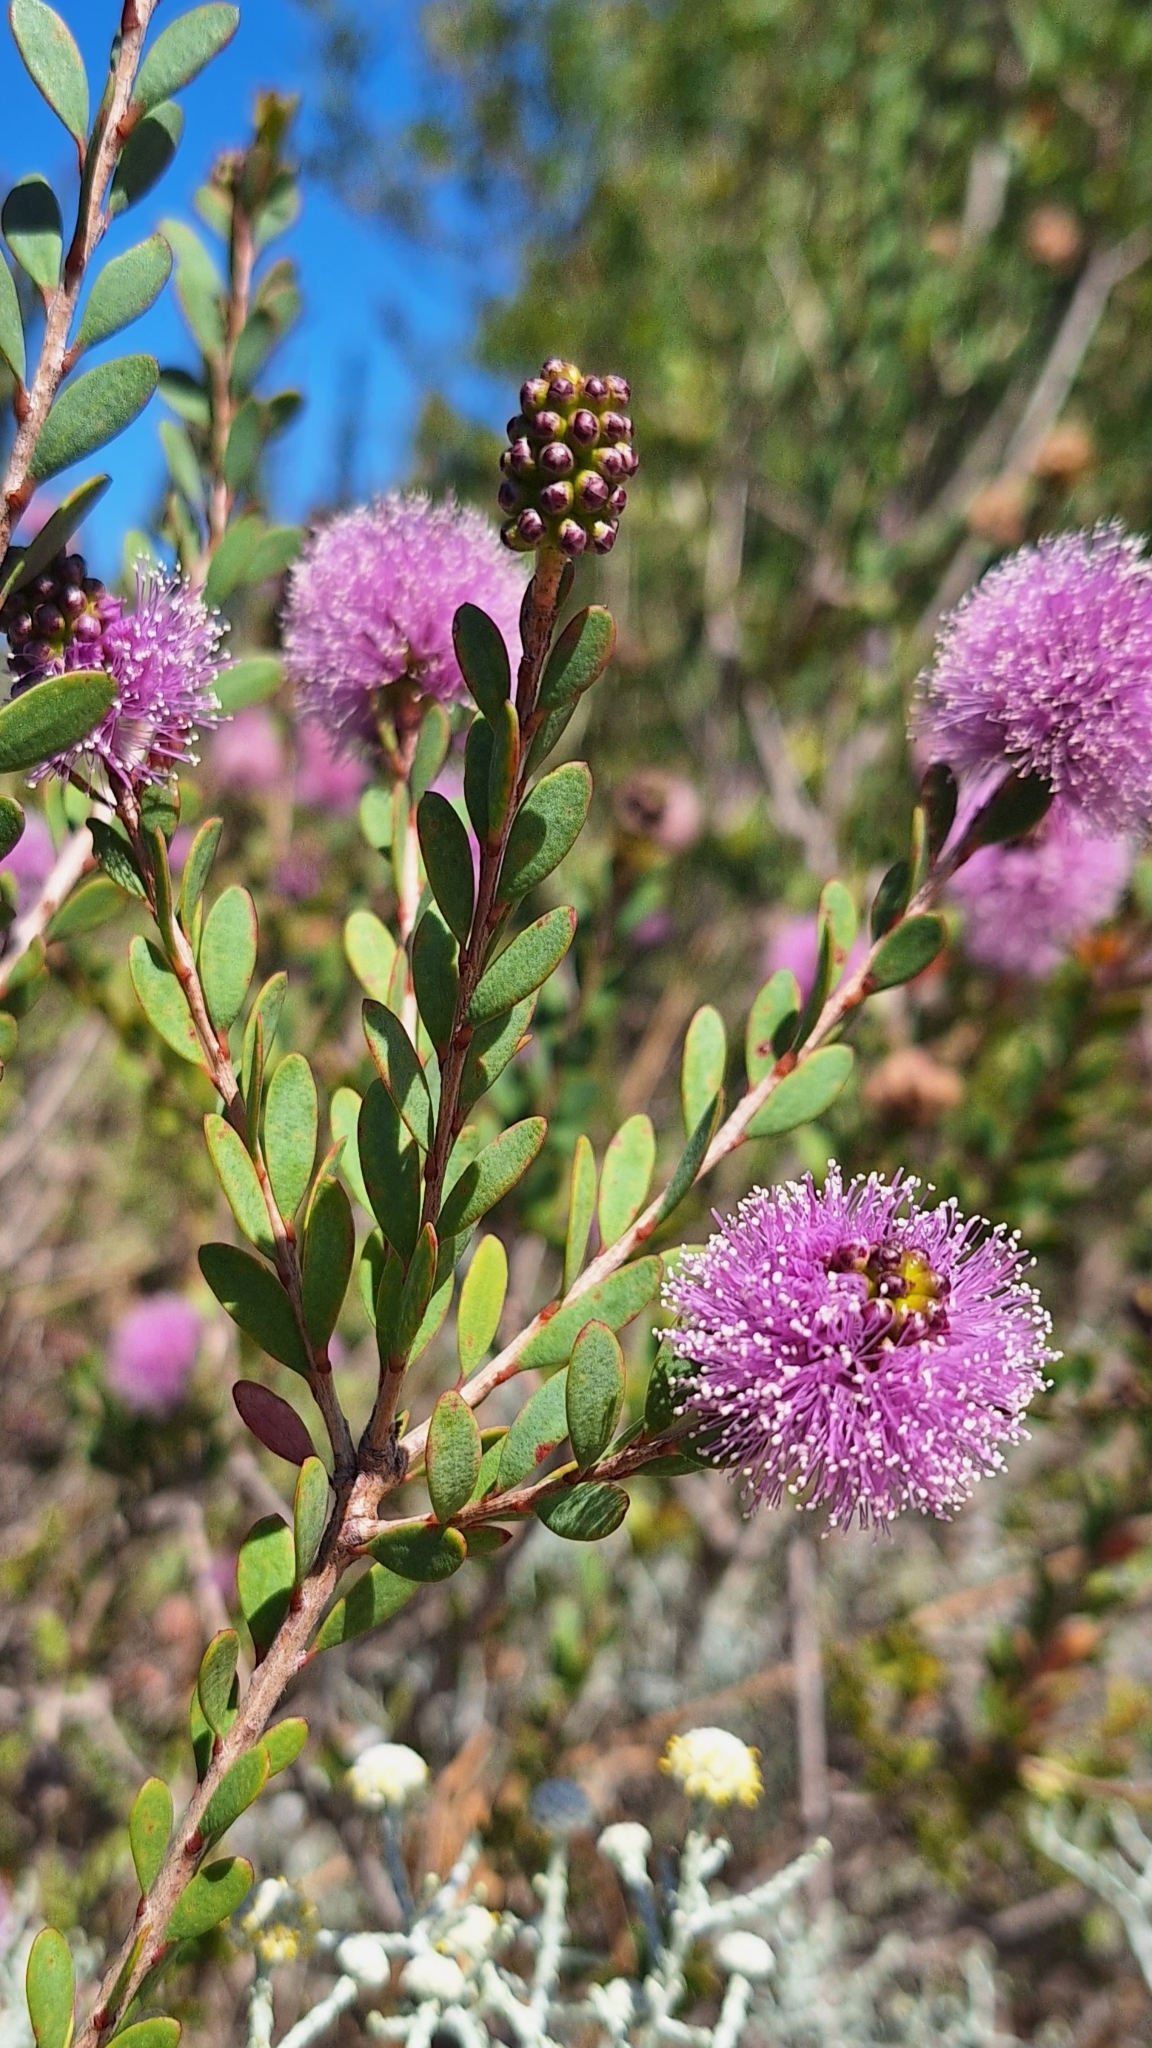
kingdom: Plantae
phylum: Tracheophyta
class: Magnoliopsida
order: Myrtales
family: Myrtaceae
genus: Melaleuca
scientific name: Melaleuca nesophila
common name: Mauve honey myrtle
